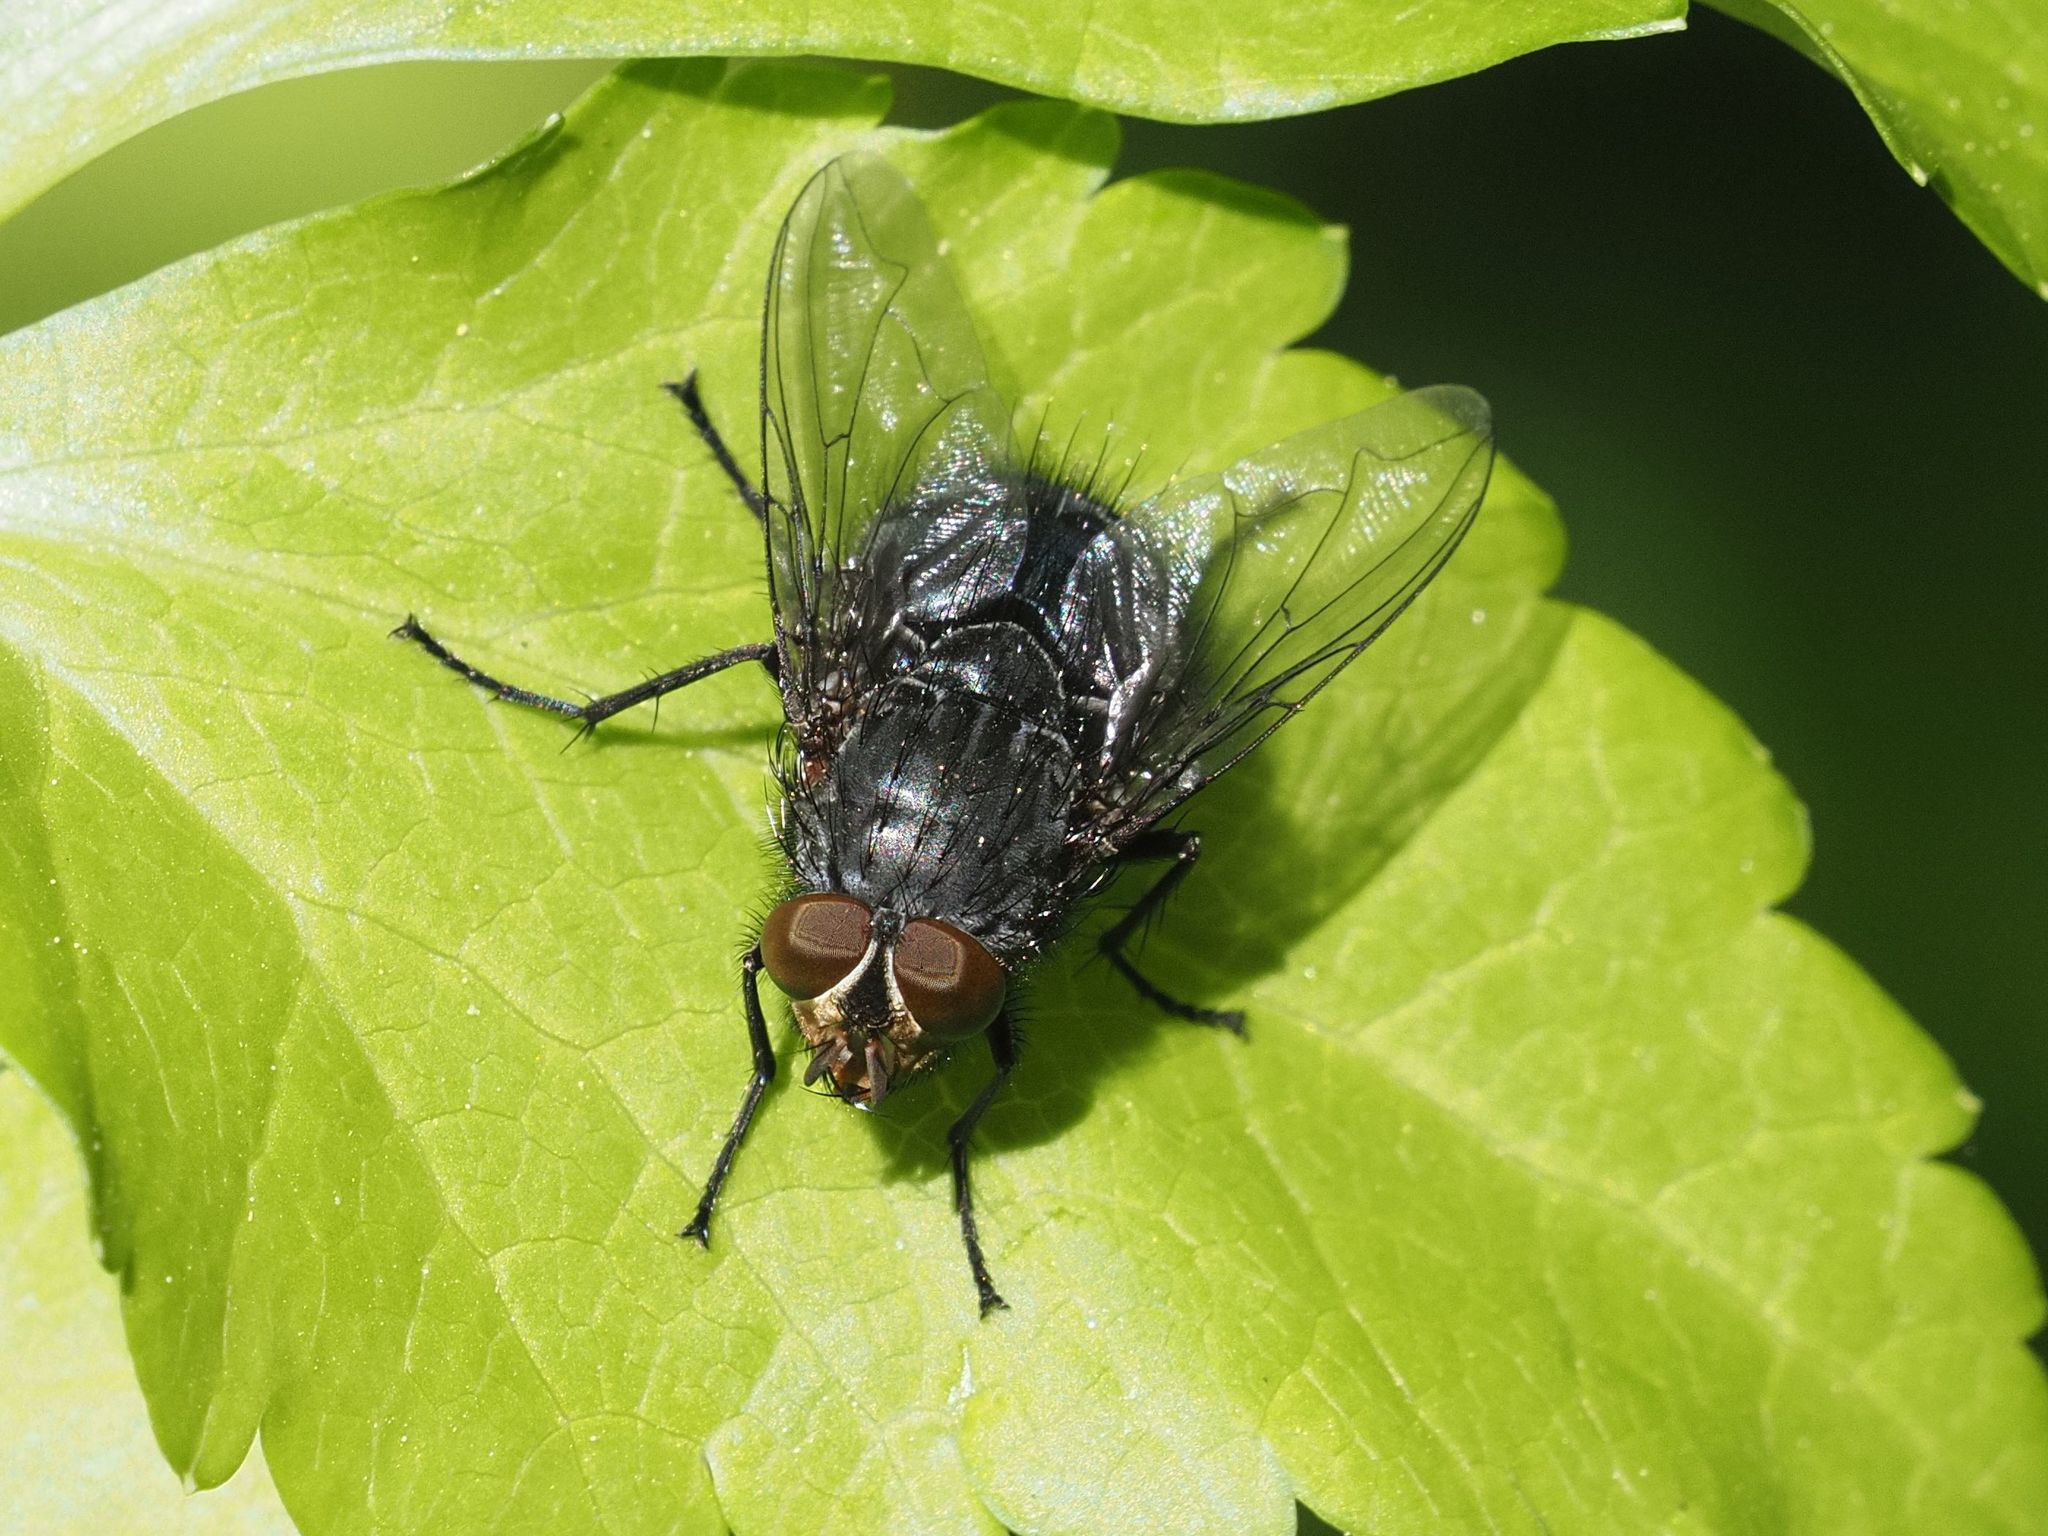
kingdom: Animalia
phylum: Arthropoda
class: Insecta
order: Diptera
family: Calliphoridae
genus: Calliphora
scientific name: Calliphora vicina
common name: Common blow flie
